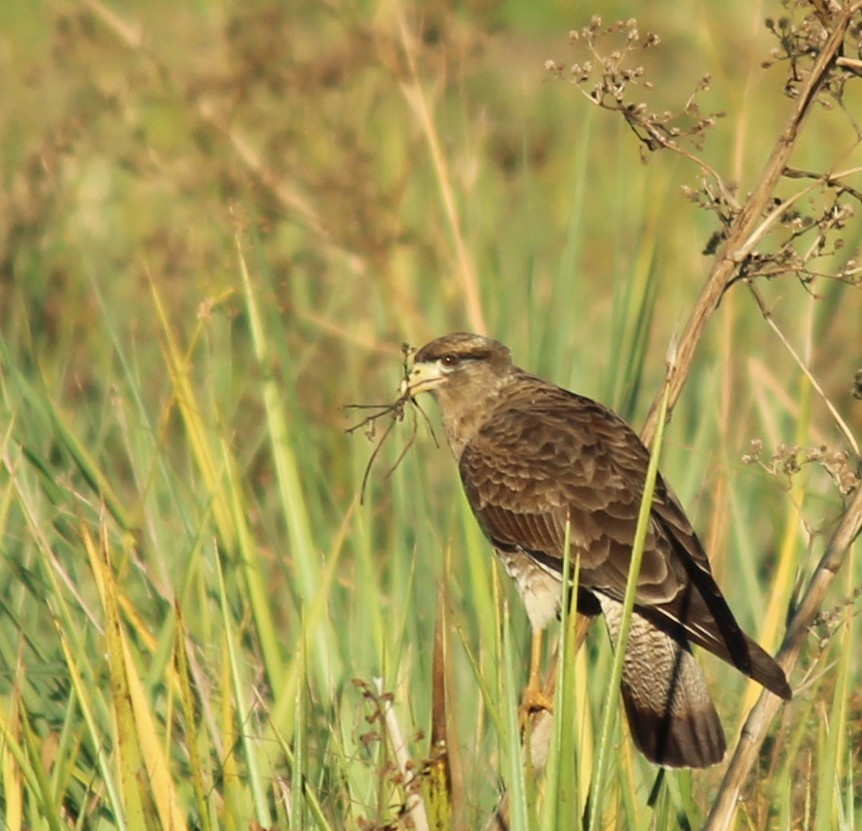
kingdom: Animalia
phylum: Chordata
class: Aves
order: Falconiformes
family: Falconidae
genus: Daptrius
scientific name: Daptrius
